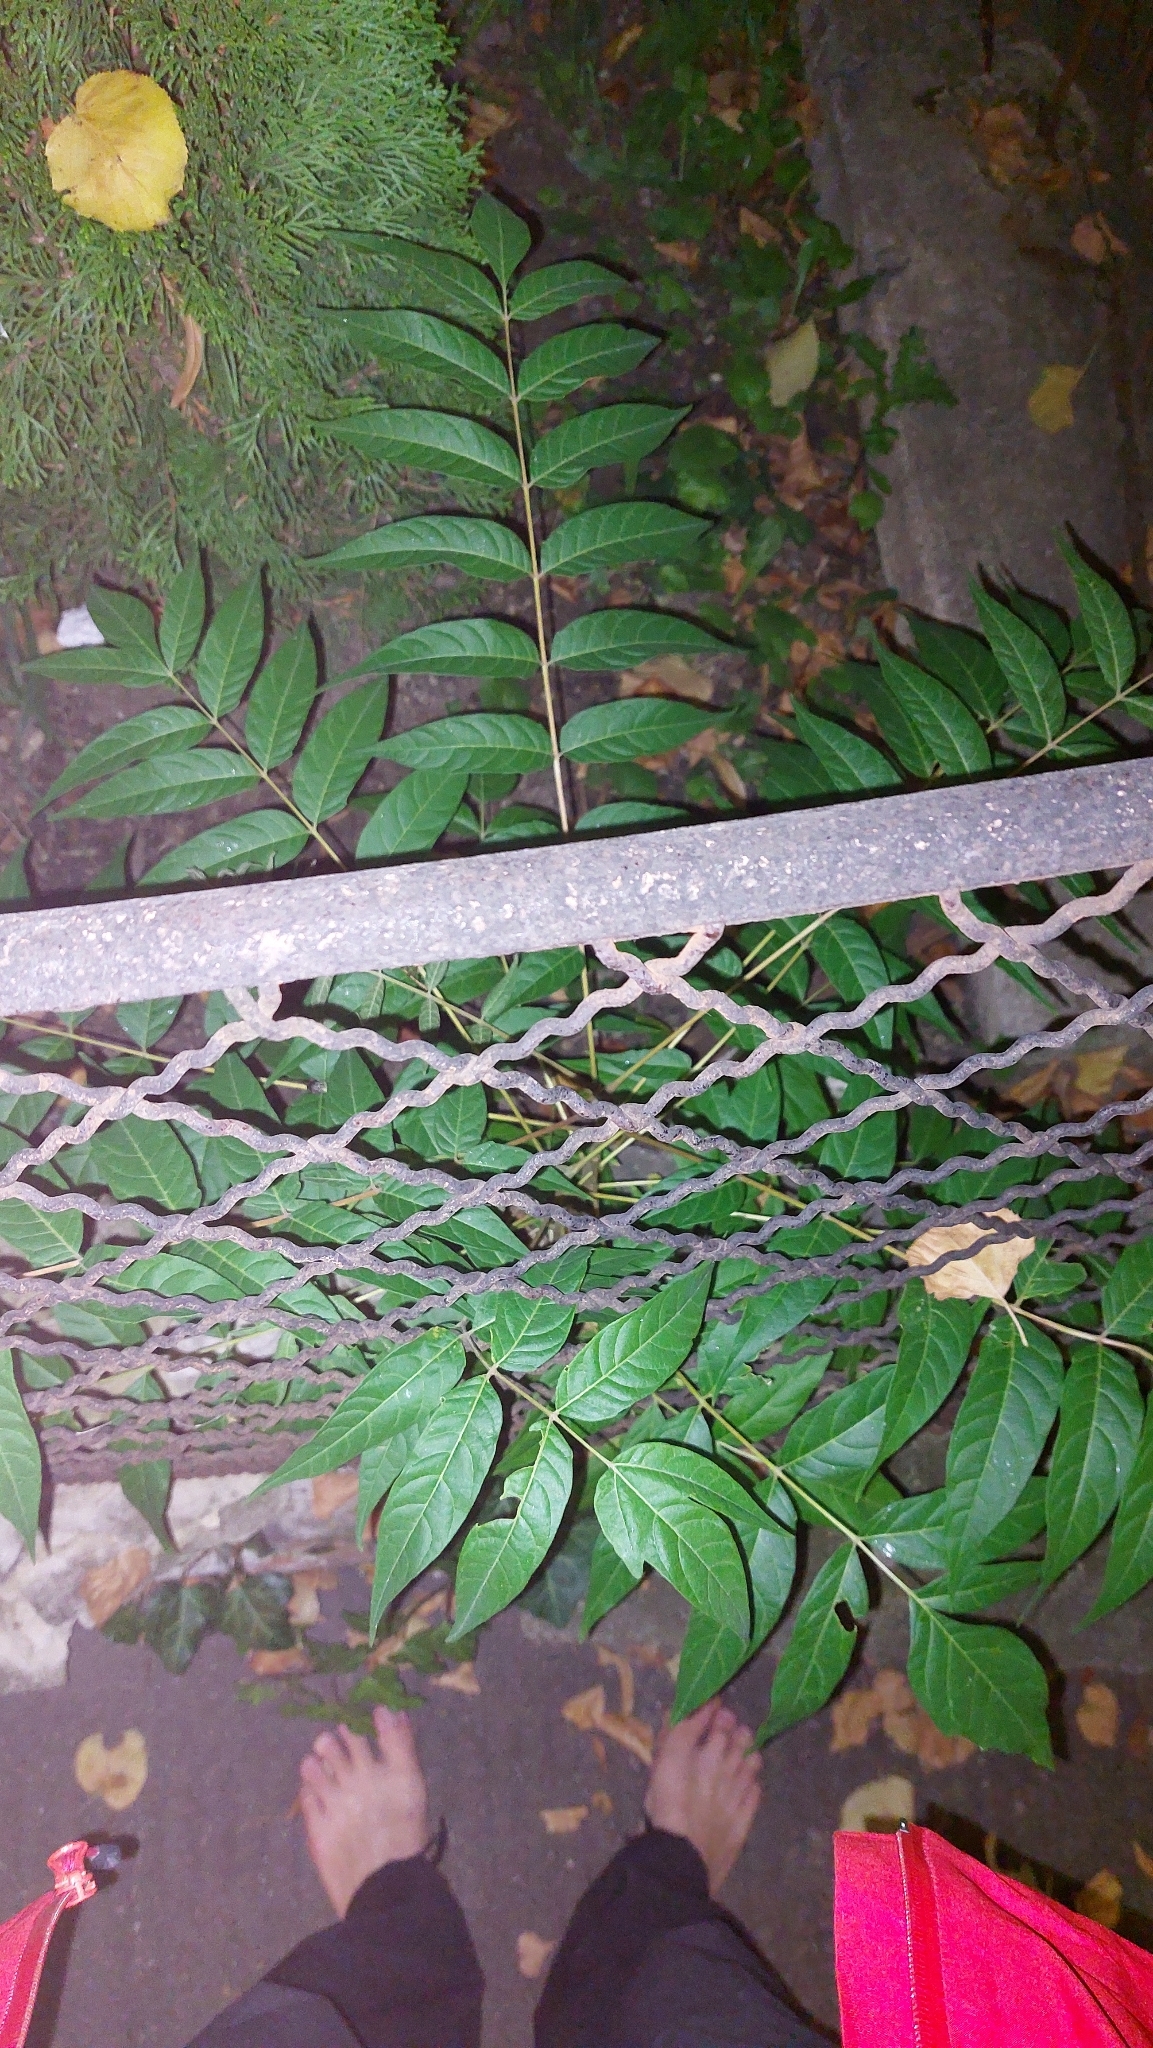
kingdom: Plantae
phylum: Tracheophyta
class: Magnoliopsida
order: Sapindales
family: Simaroubaceae
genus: Ailanthus
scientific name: Ailanthus altissima
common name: Tree-of-heaven
